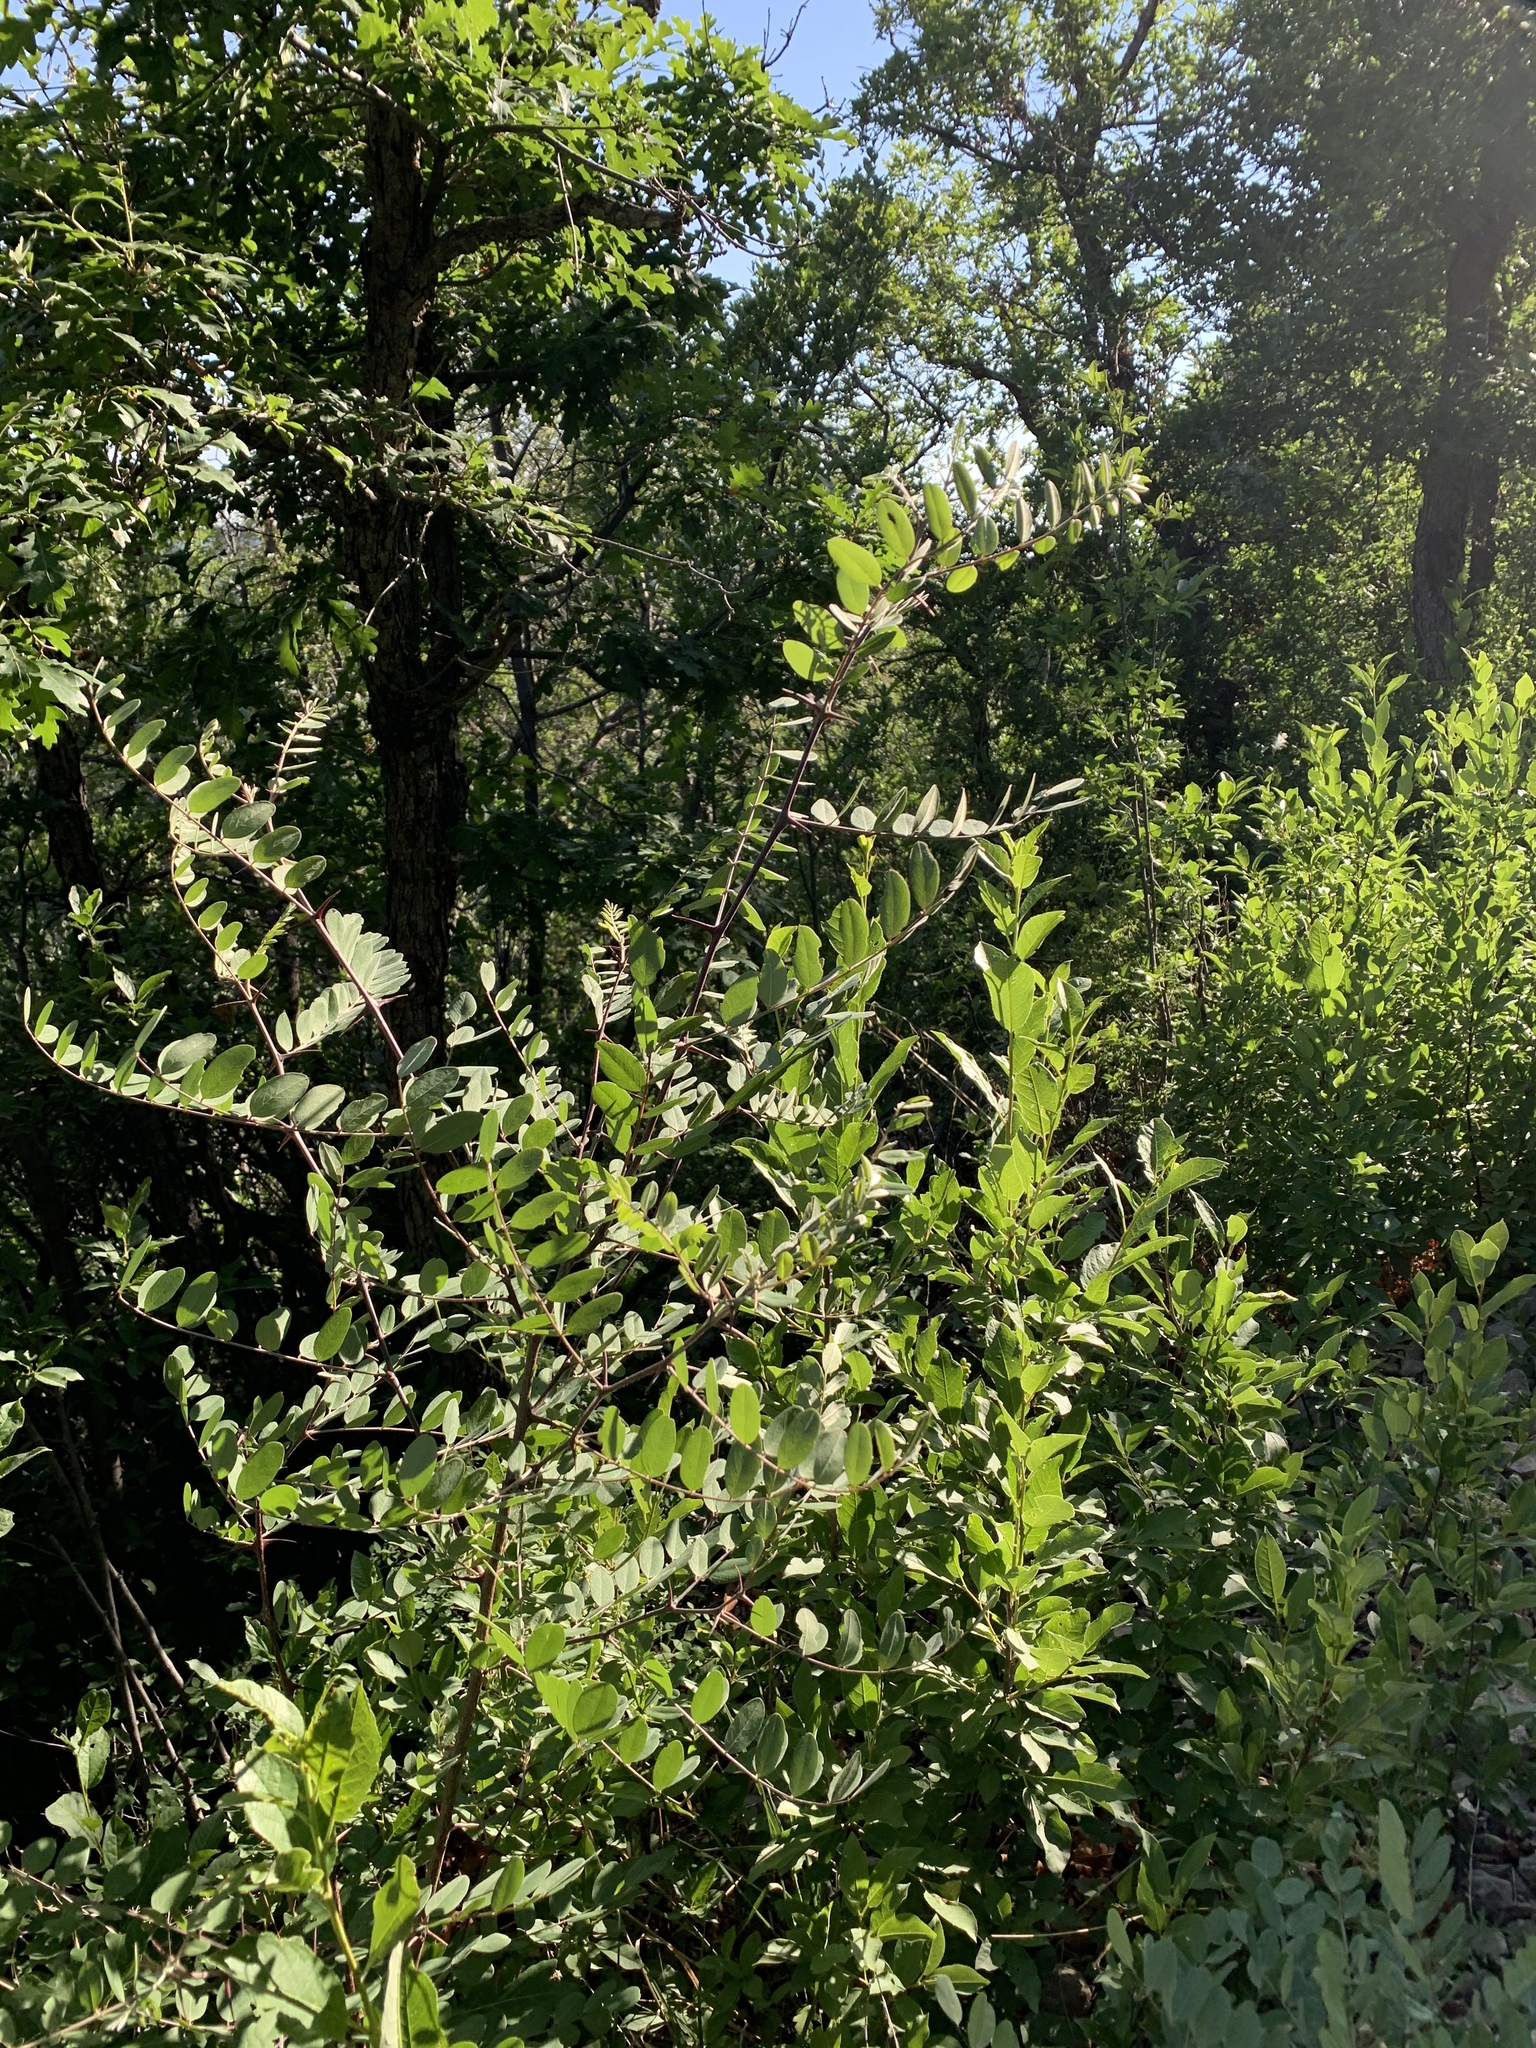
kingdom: Plantae
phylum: Tracheophyta
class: Magnoliopsida
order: Fabales
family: Fabaceae
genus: Robinia
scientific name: Robinia neomexicana
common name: New mexico locust
